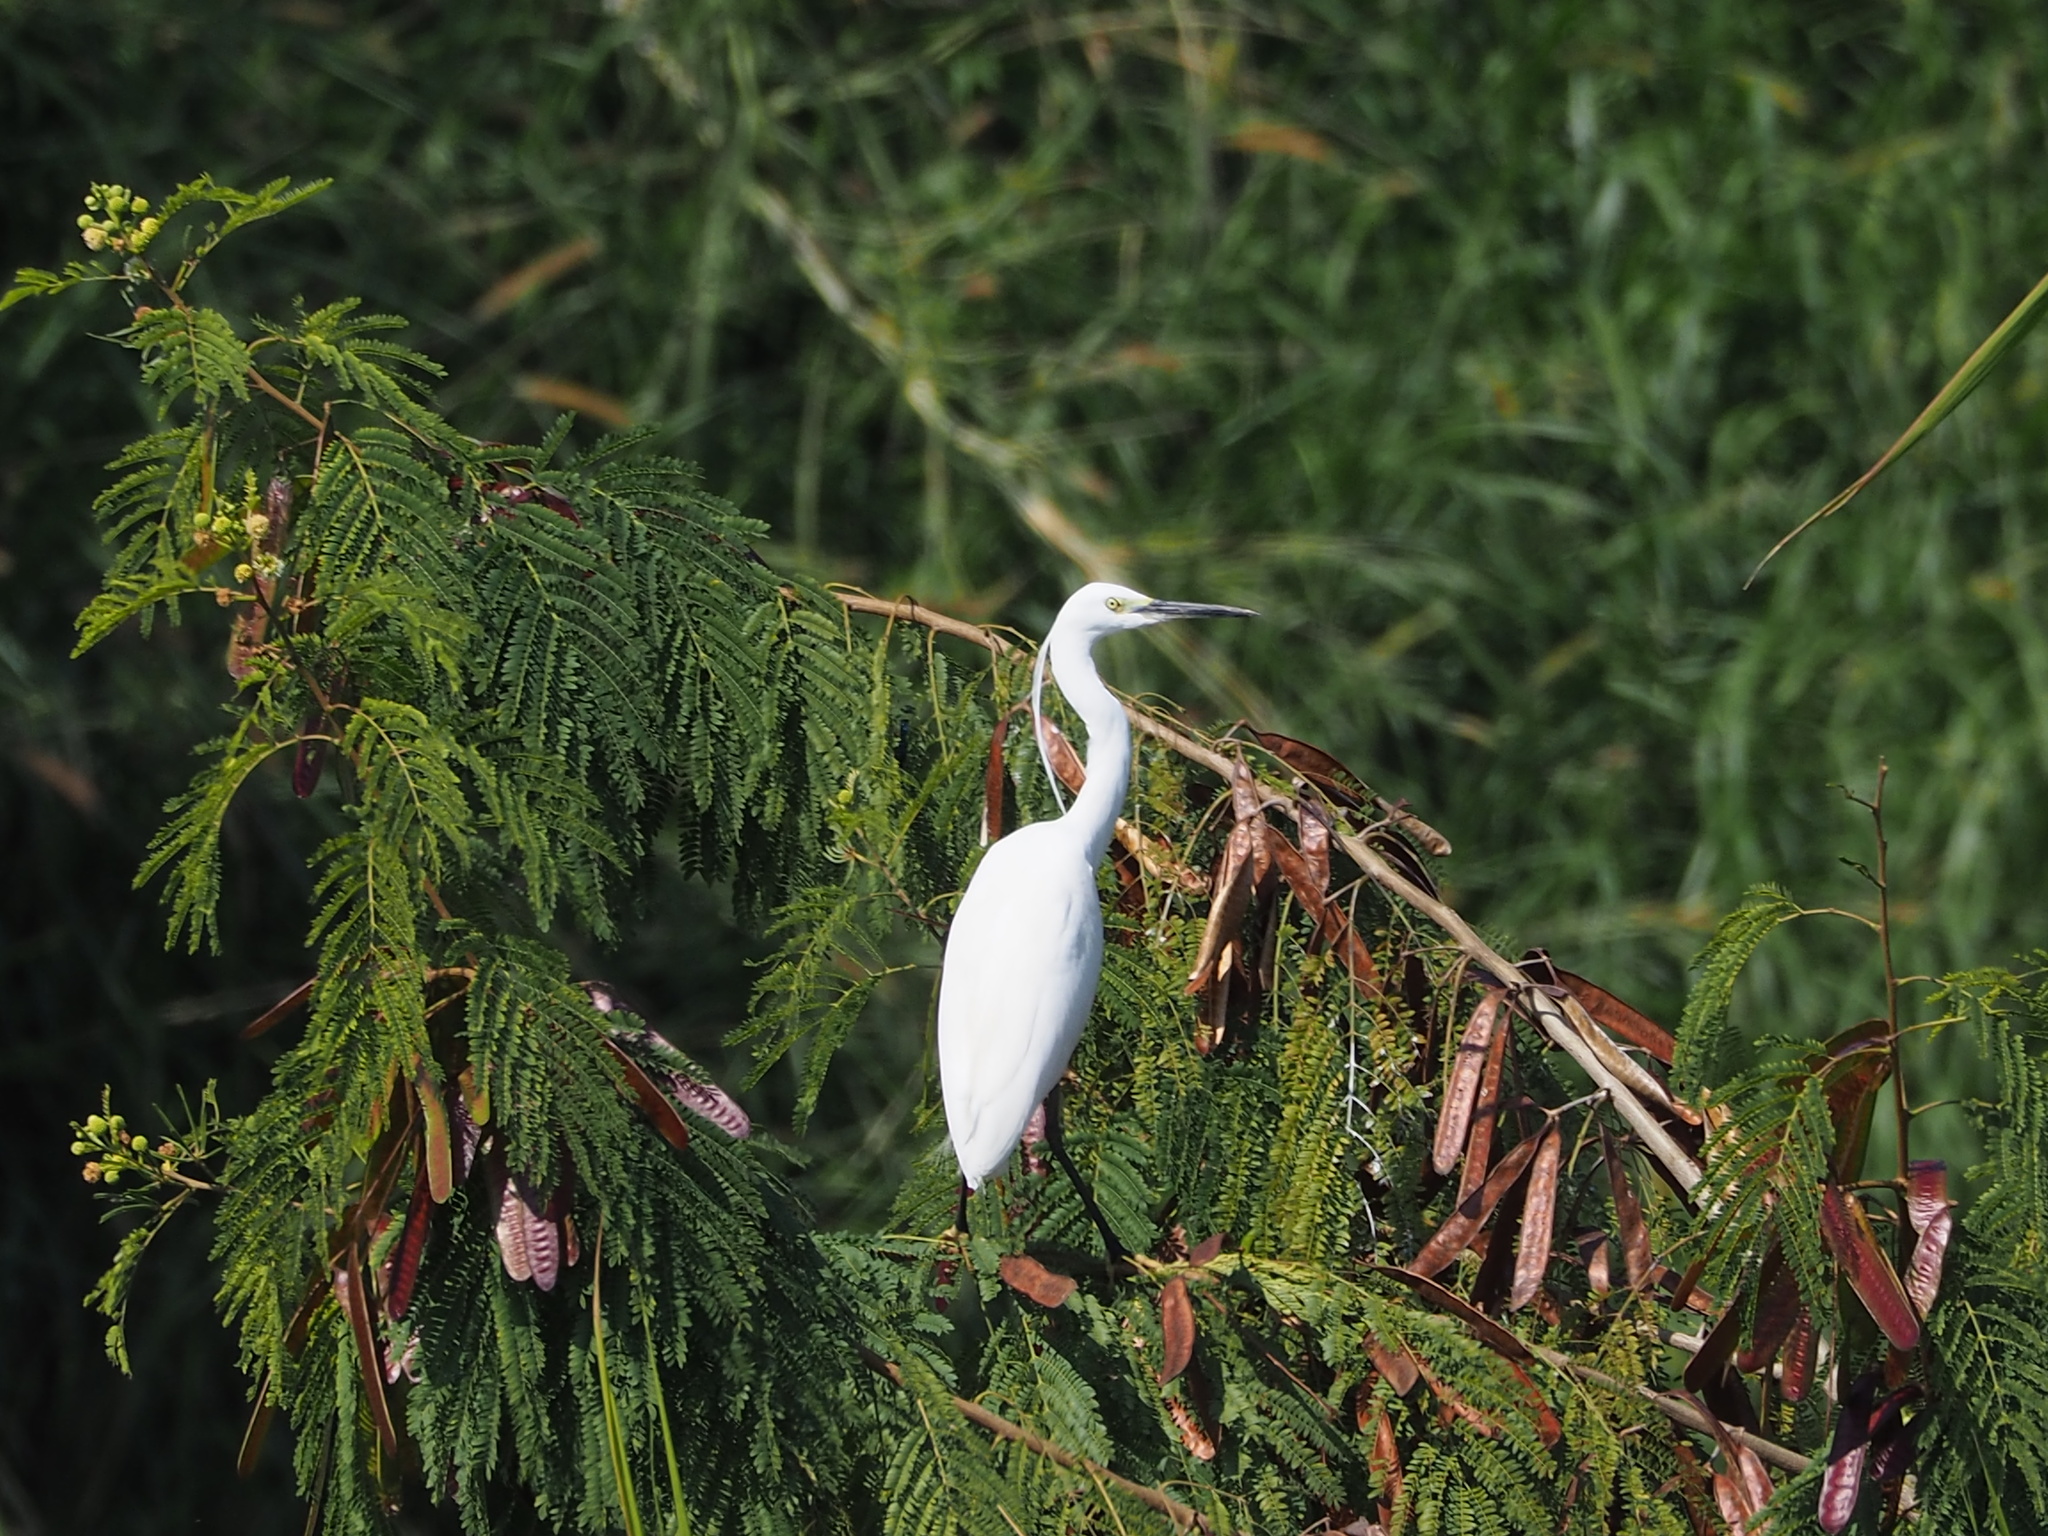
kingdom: Animalia
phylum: Chordata
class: Aves
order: Pelecaniformes
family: Ardeidae
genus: Egretta
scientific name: Egretta garzetta
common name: Little egret
